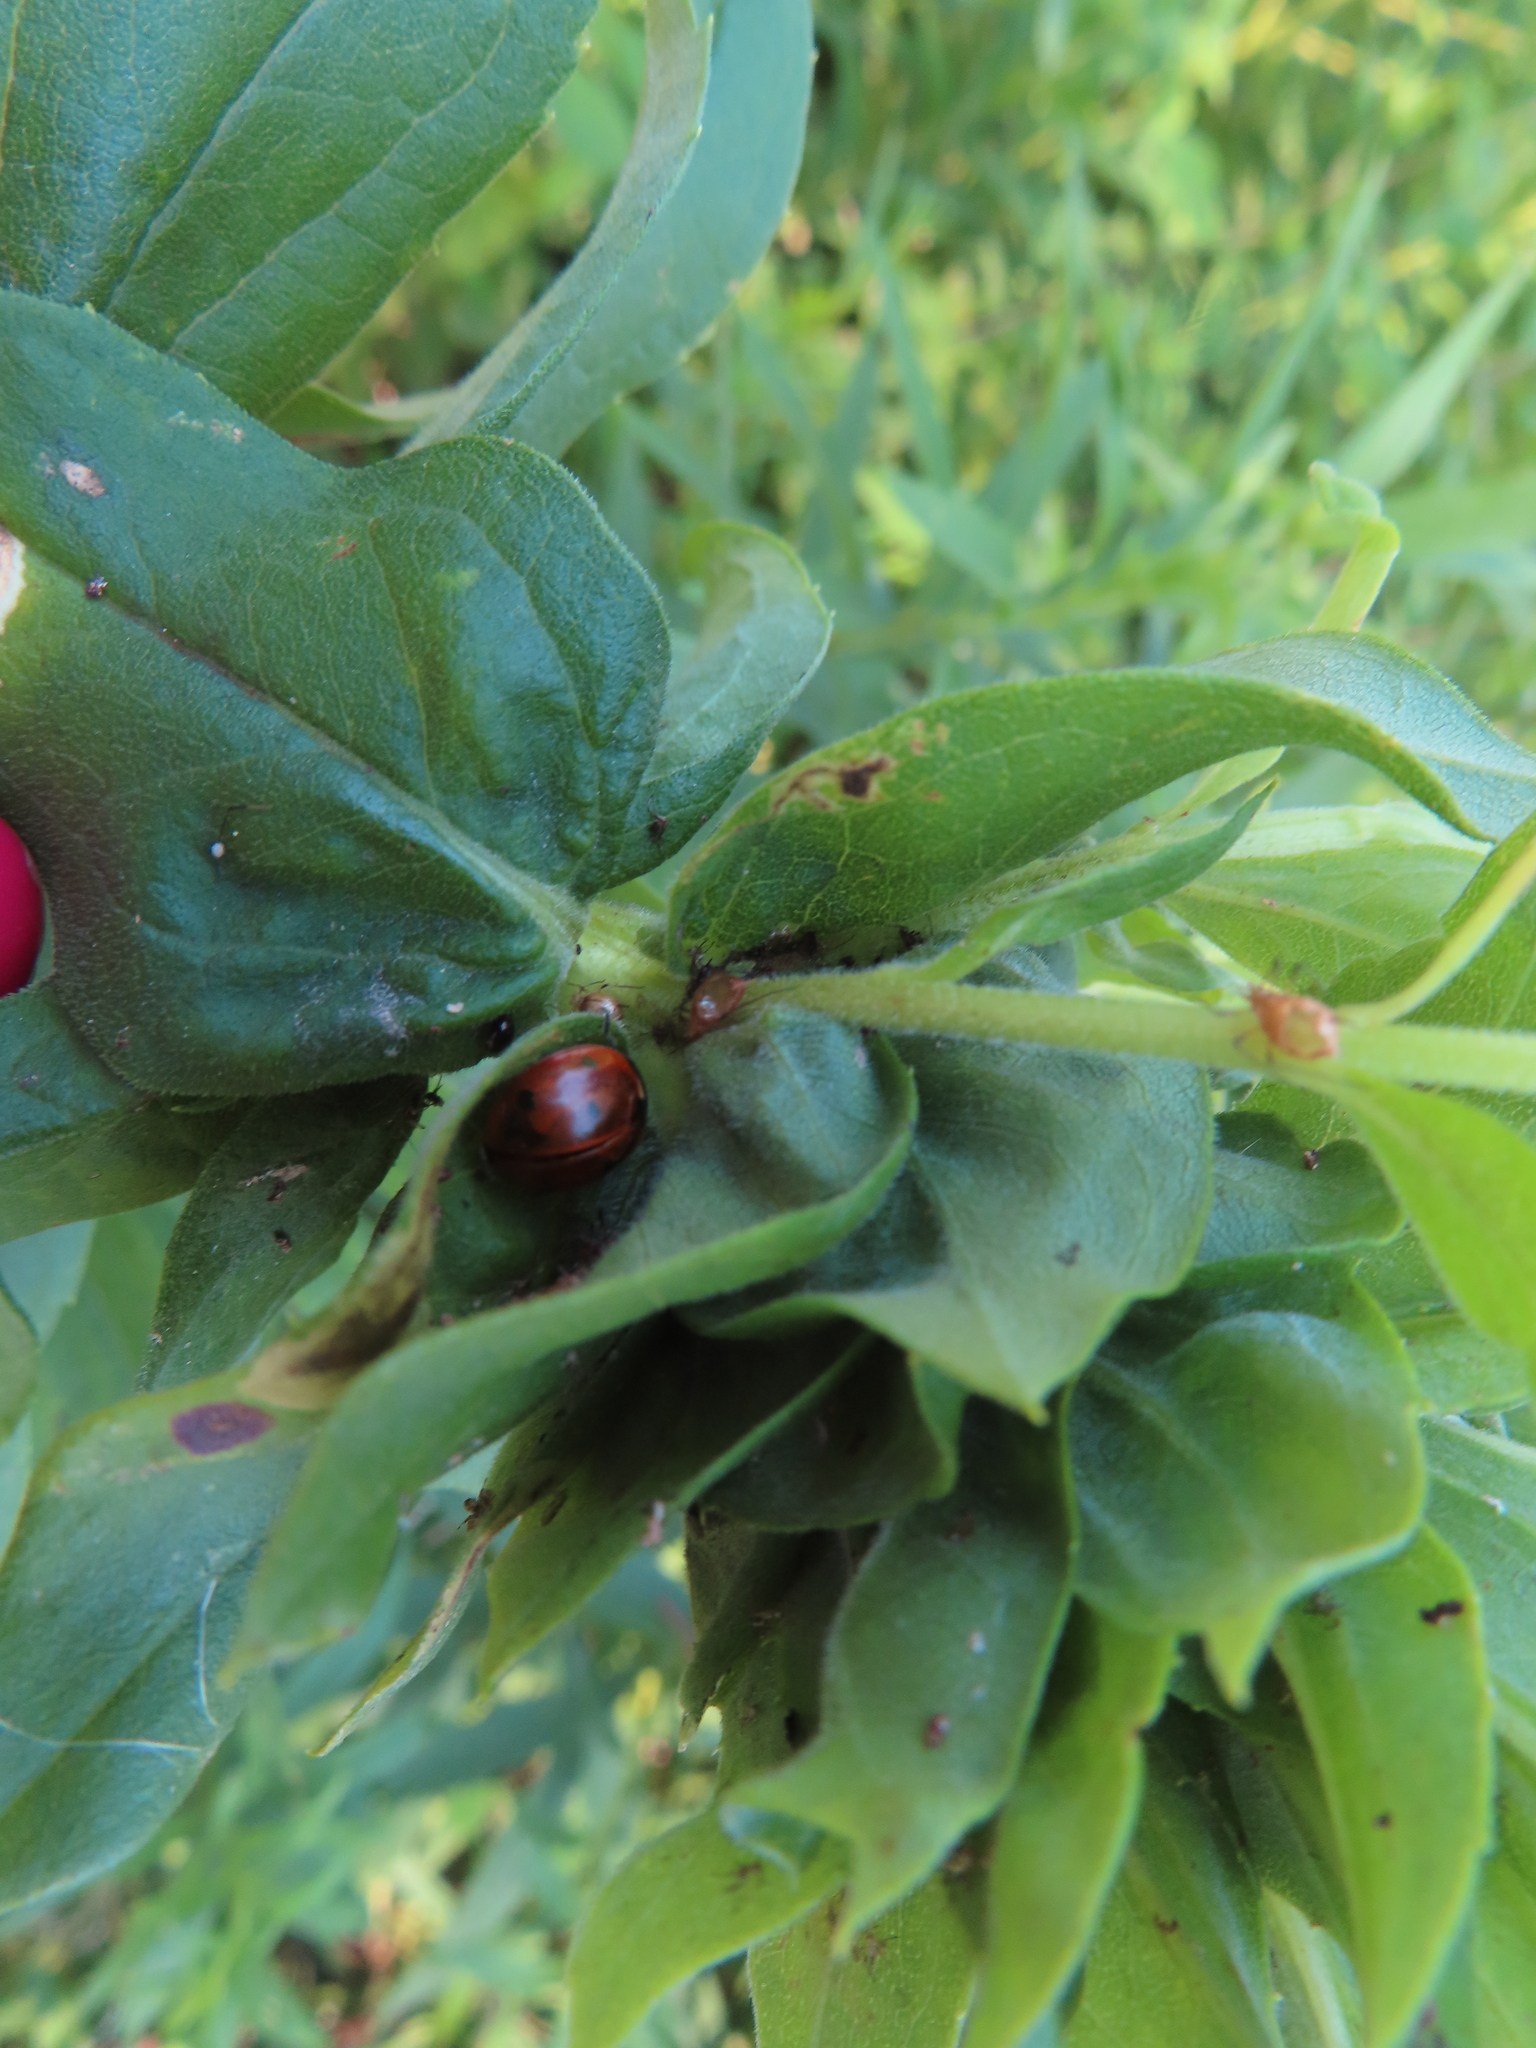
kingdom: Animalia
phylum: Arthropoda
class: Insecta
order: Coleoptera
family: Coccinellidae
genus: Coccinella
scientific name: Coccinella septempunctata
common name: Sevenspotted lady beetle
